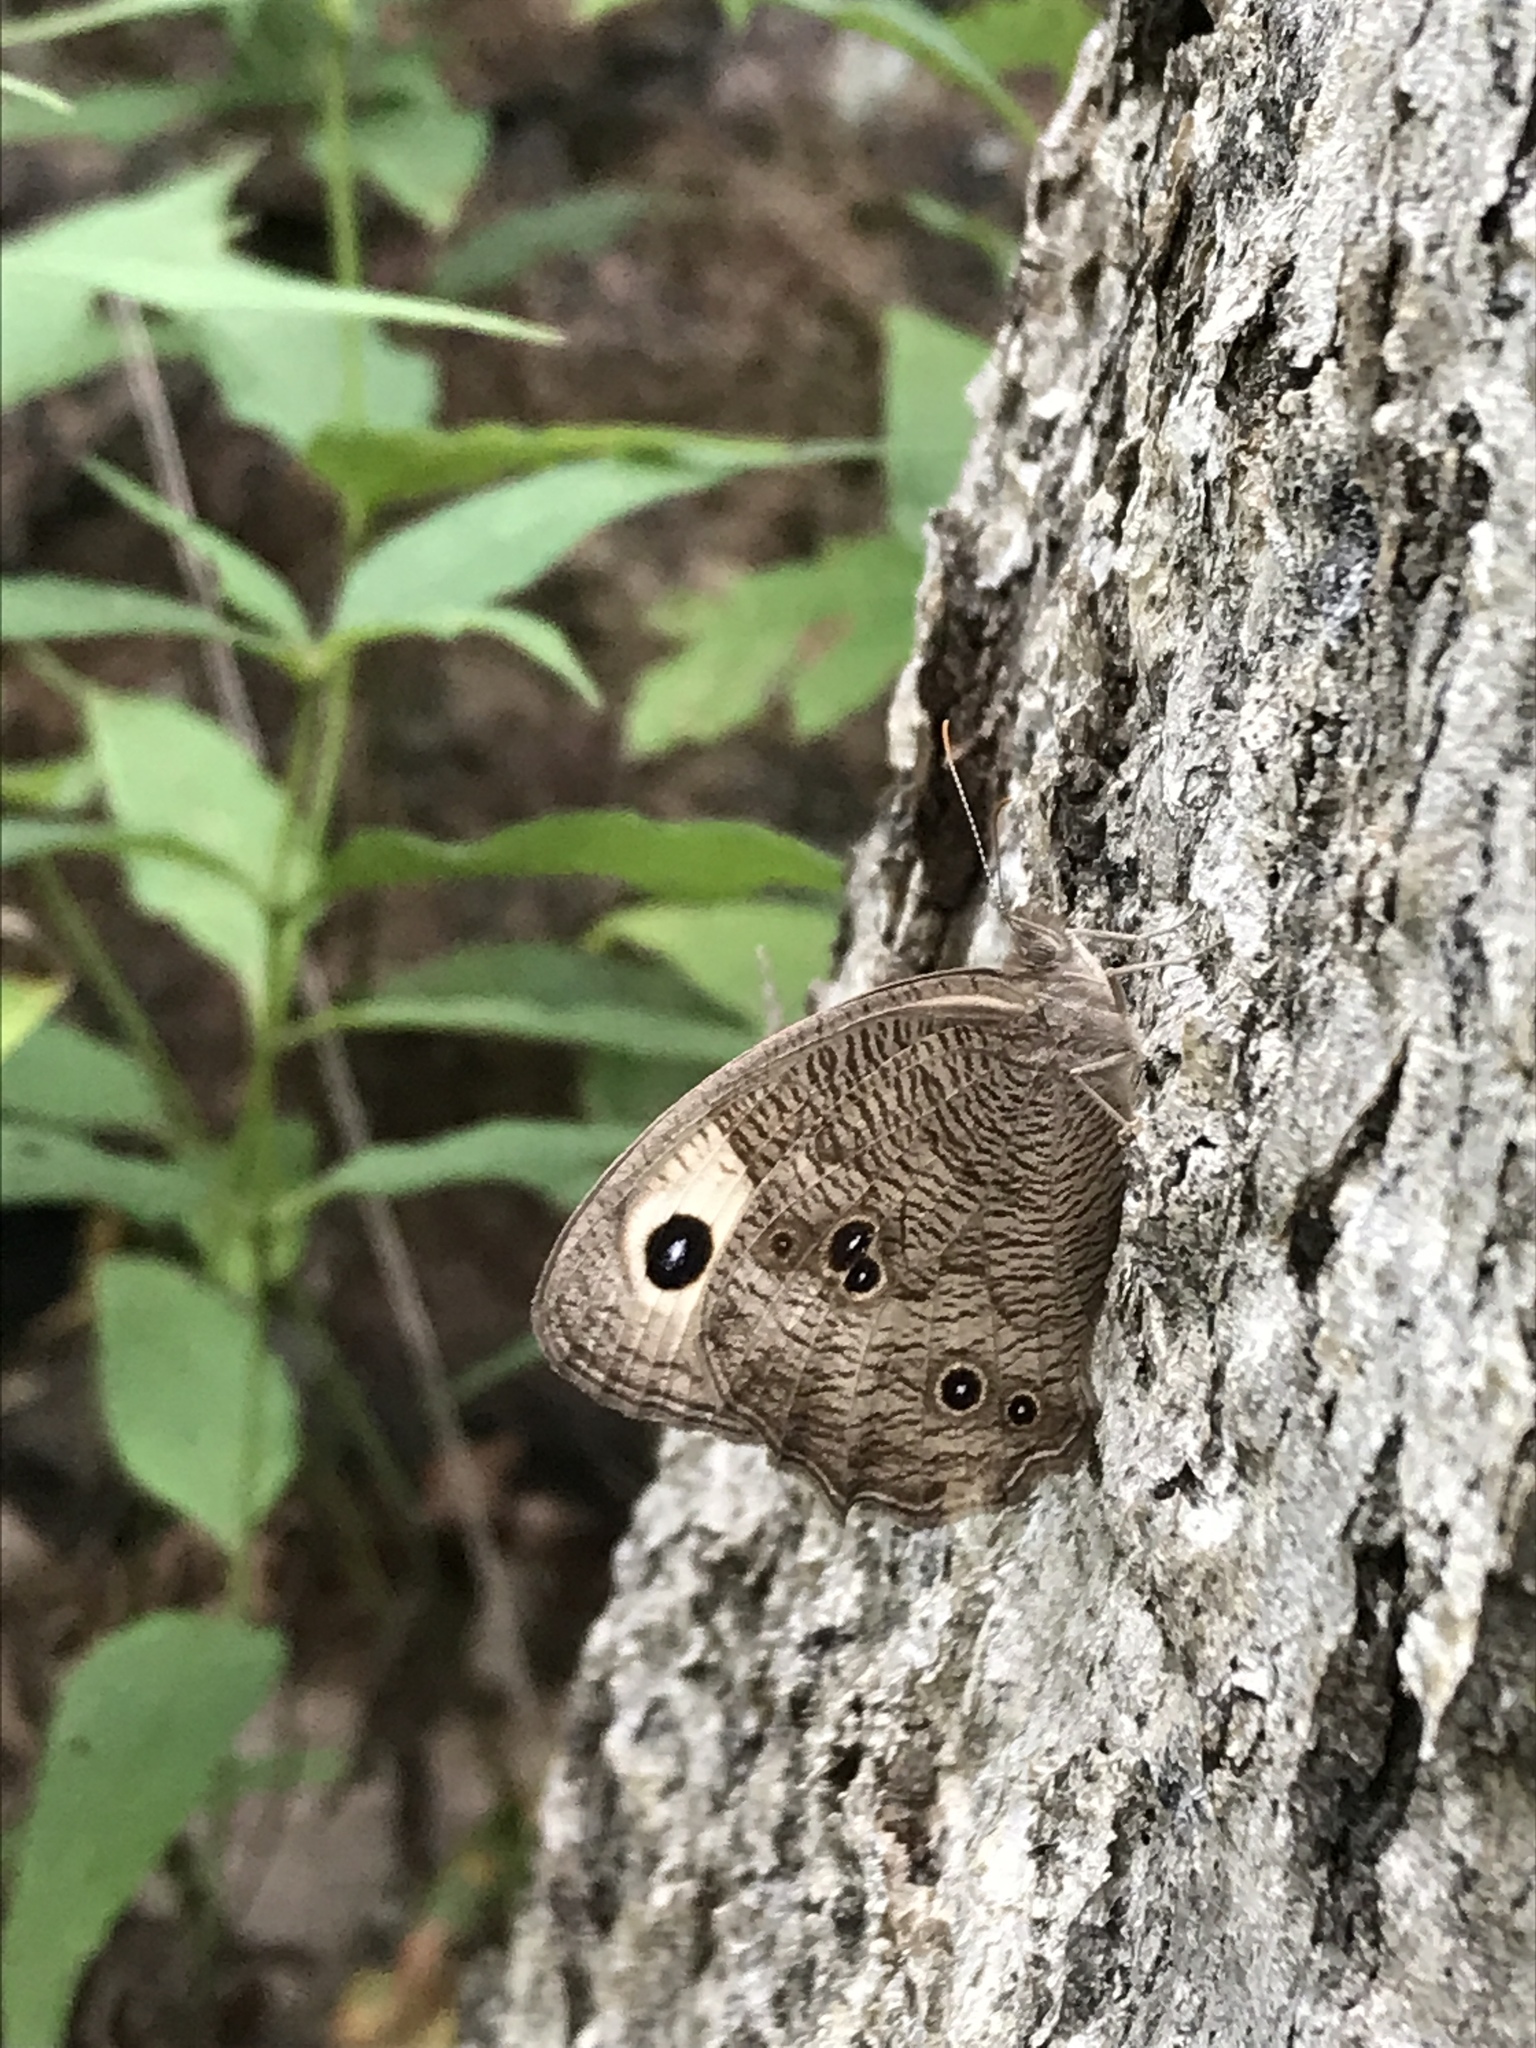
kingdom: Animalia
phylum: Arthropoda
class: Insecta
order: Lepidoptera
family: Nymphalidae
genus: Cercyonis
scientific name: Cercyonis pegala
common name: Common wood-nymph
